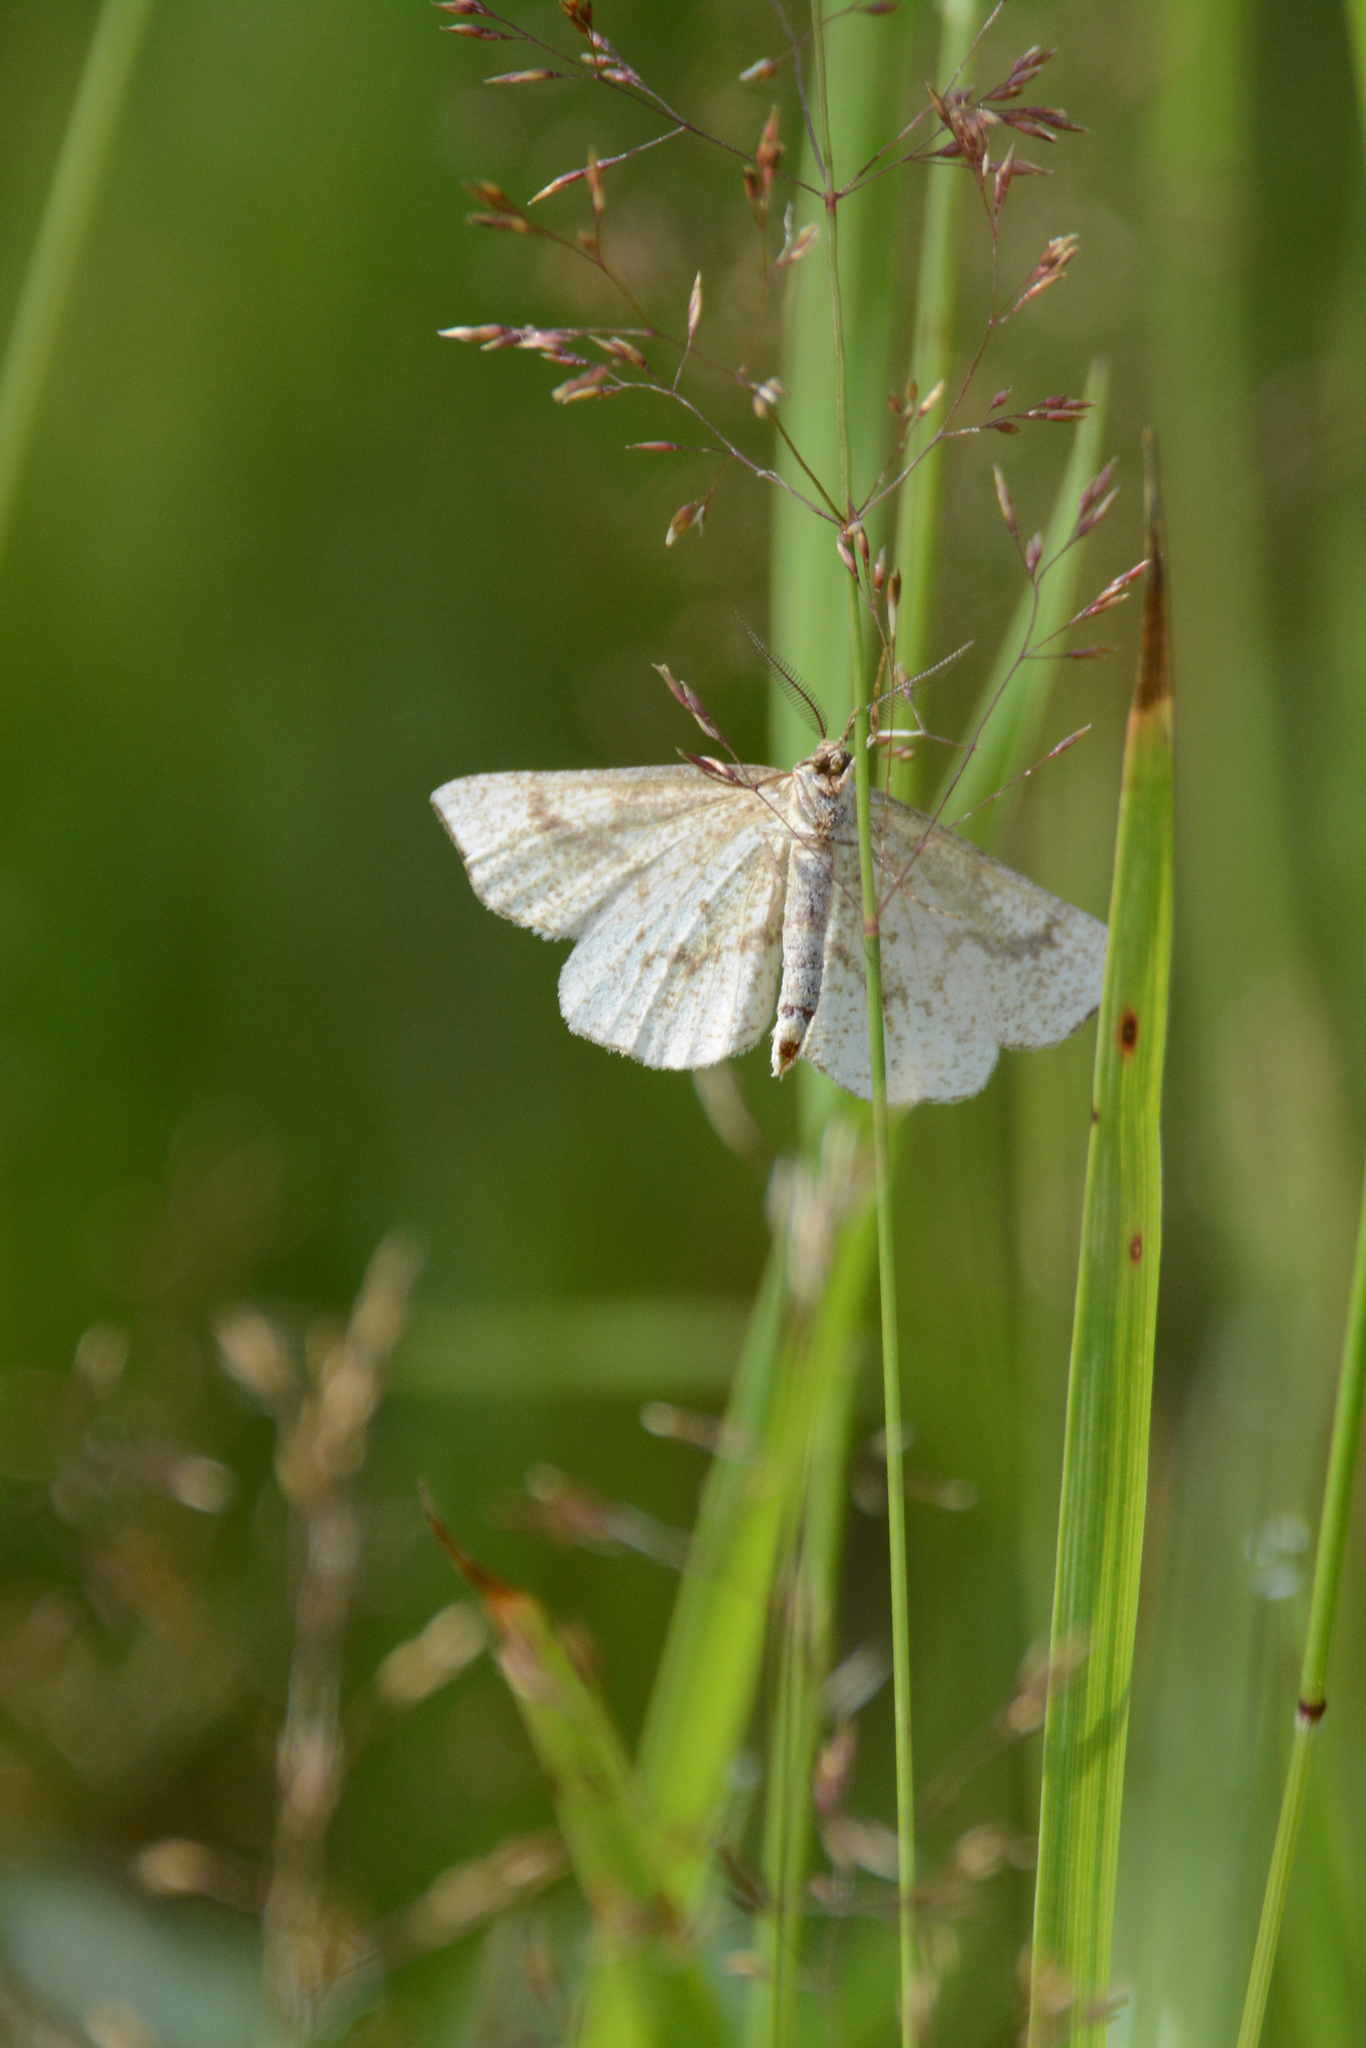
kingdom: Animalia
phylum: Arthropoda
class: Insecta
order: Lepidoptera
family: Geometridae
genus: Hypoxystis
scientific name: Hypoxystis pluviaria
